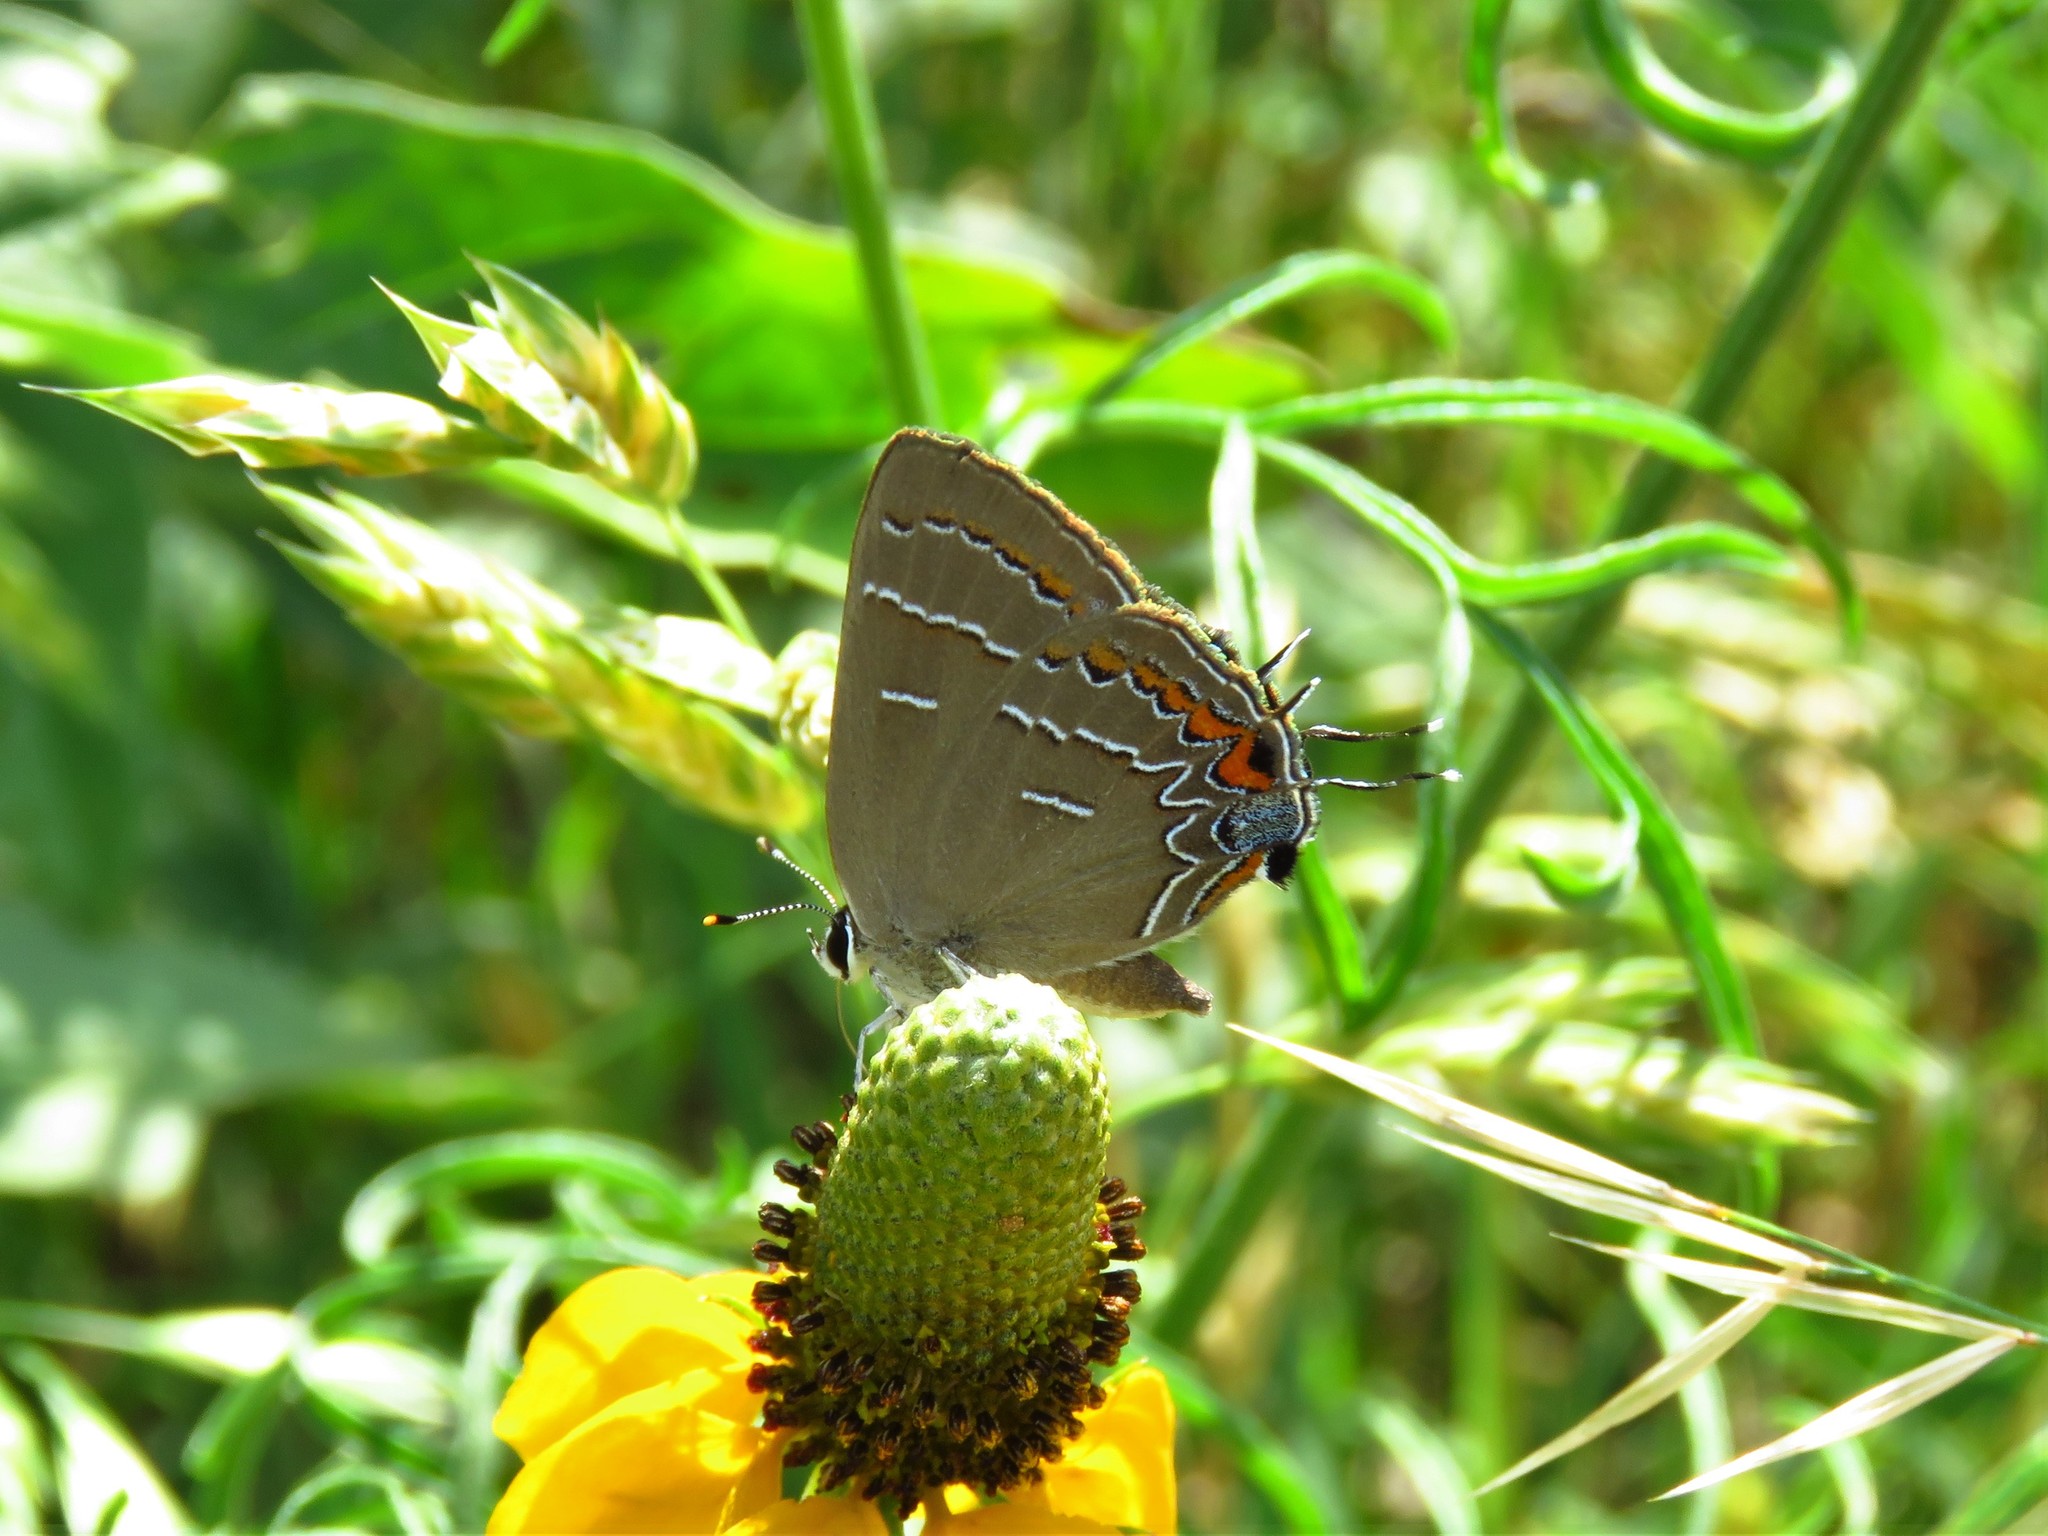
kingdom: Animalia
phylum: Arthropoda
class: Insecta
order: Lepidoptera
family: Lycaenidae
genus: Phaeostrymon
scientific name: Phaeostrymon alcestis
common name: Soapberry hairstreak
